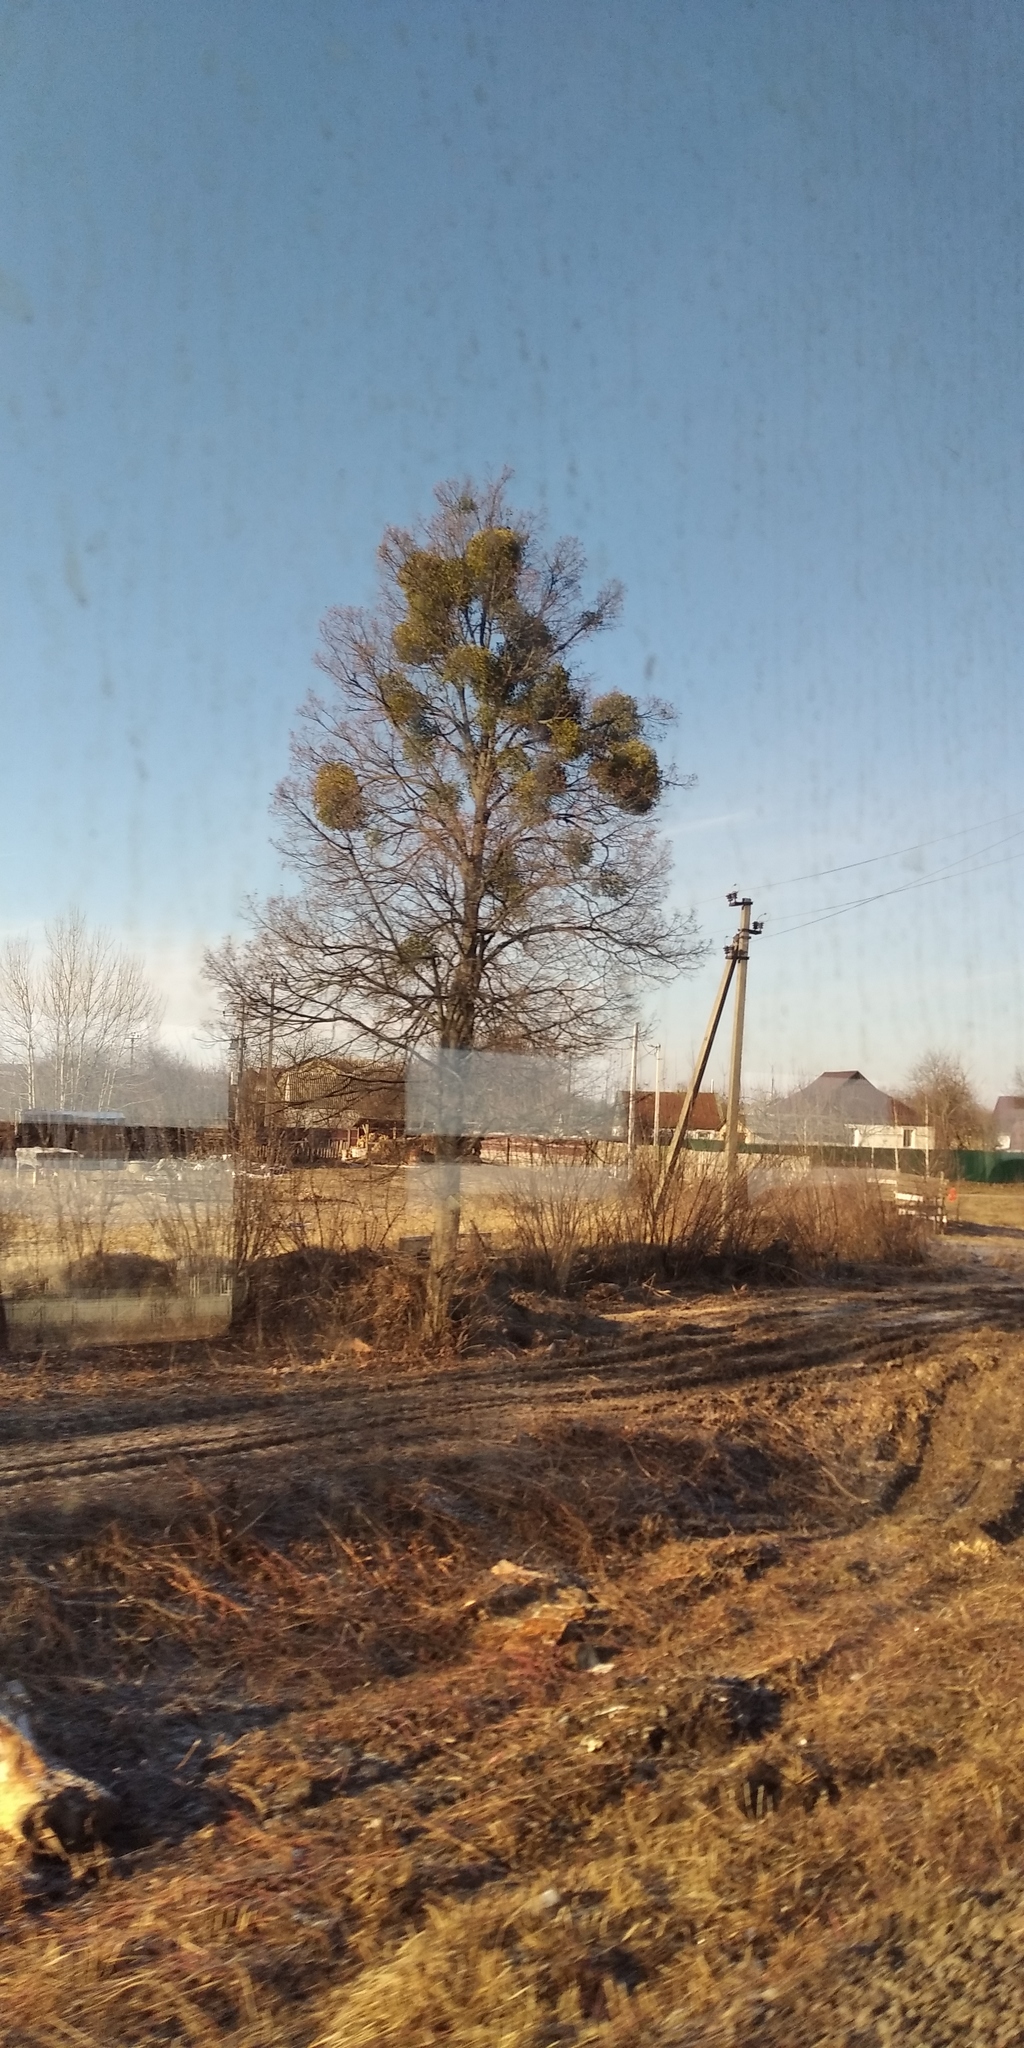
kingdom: Plantae
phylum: Tracheophyta
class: Magnoliopsida
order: Santalales
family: Viscaceae
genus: Viscum
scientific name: Viscum album
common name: Mistletoe
